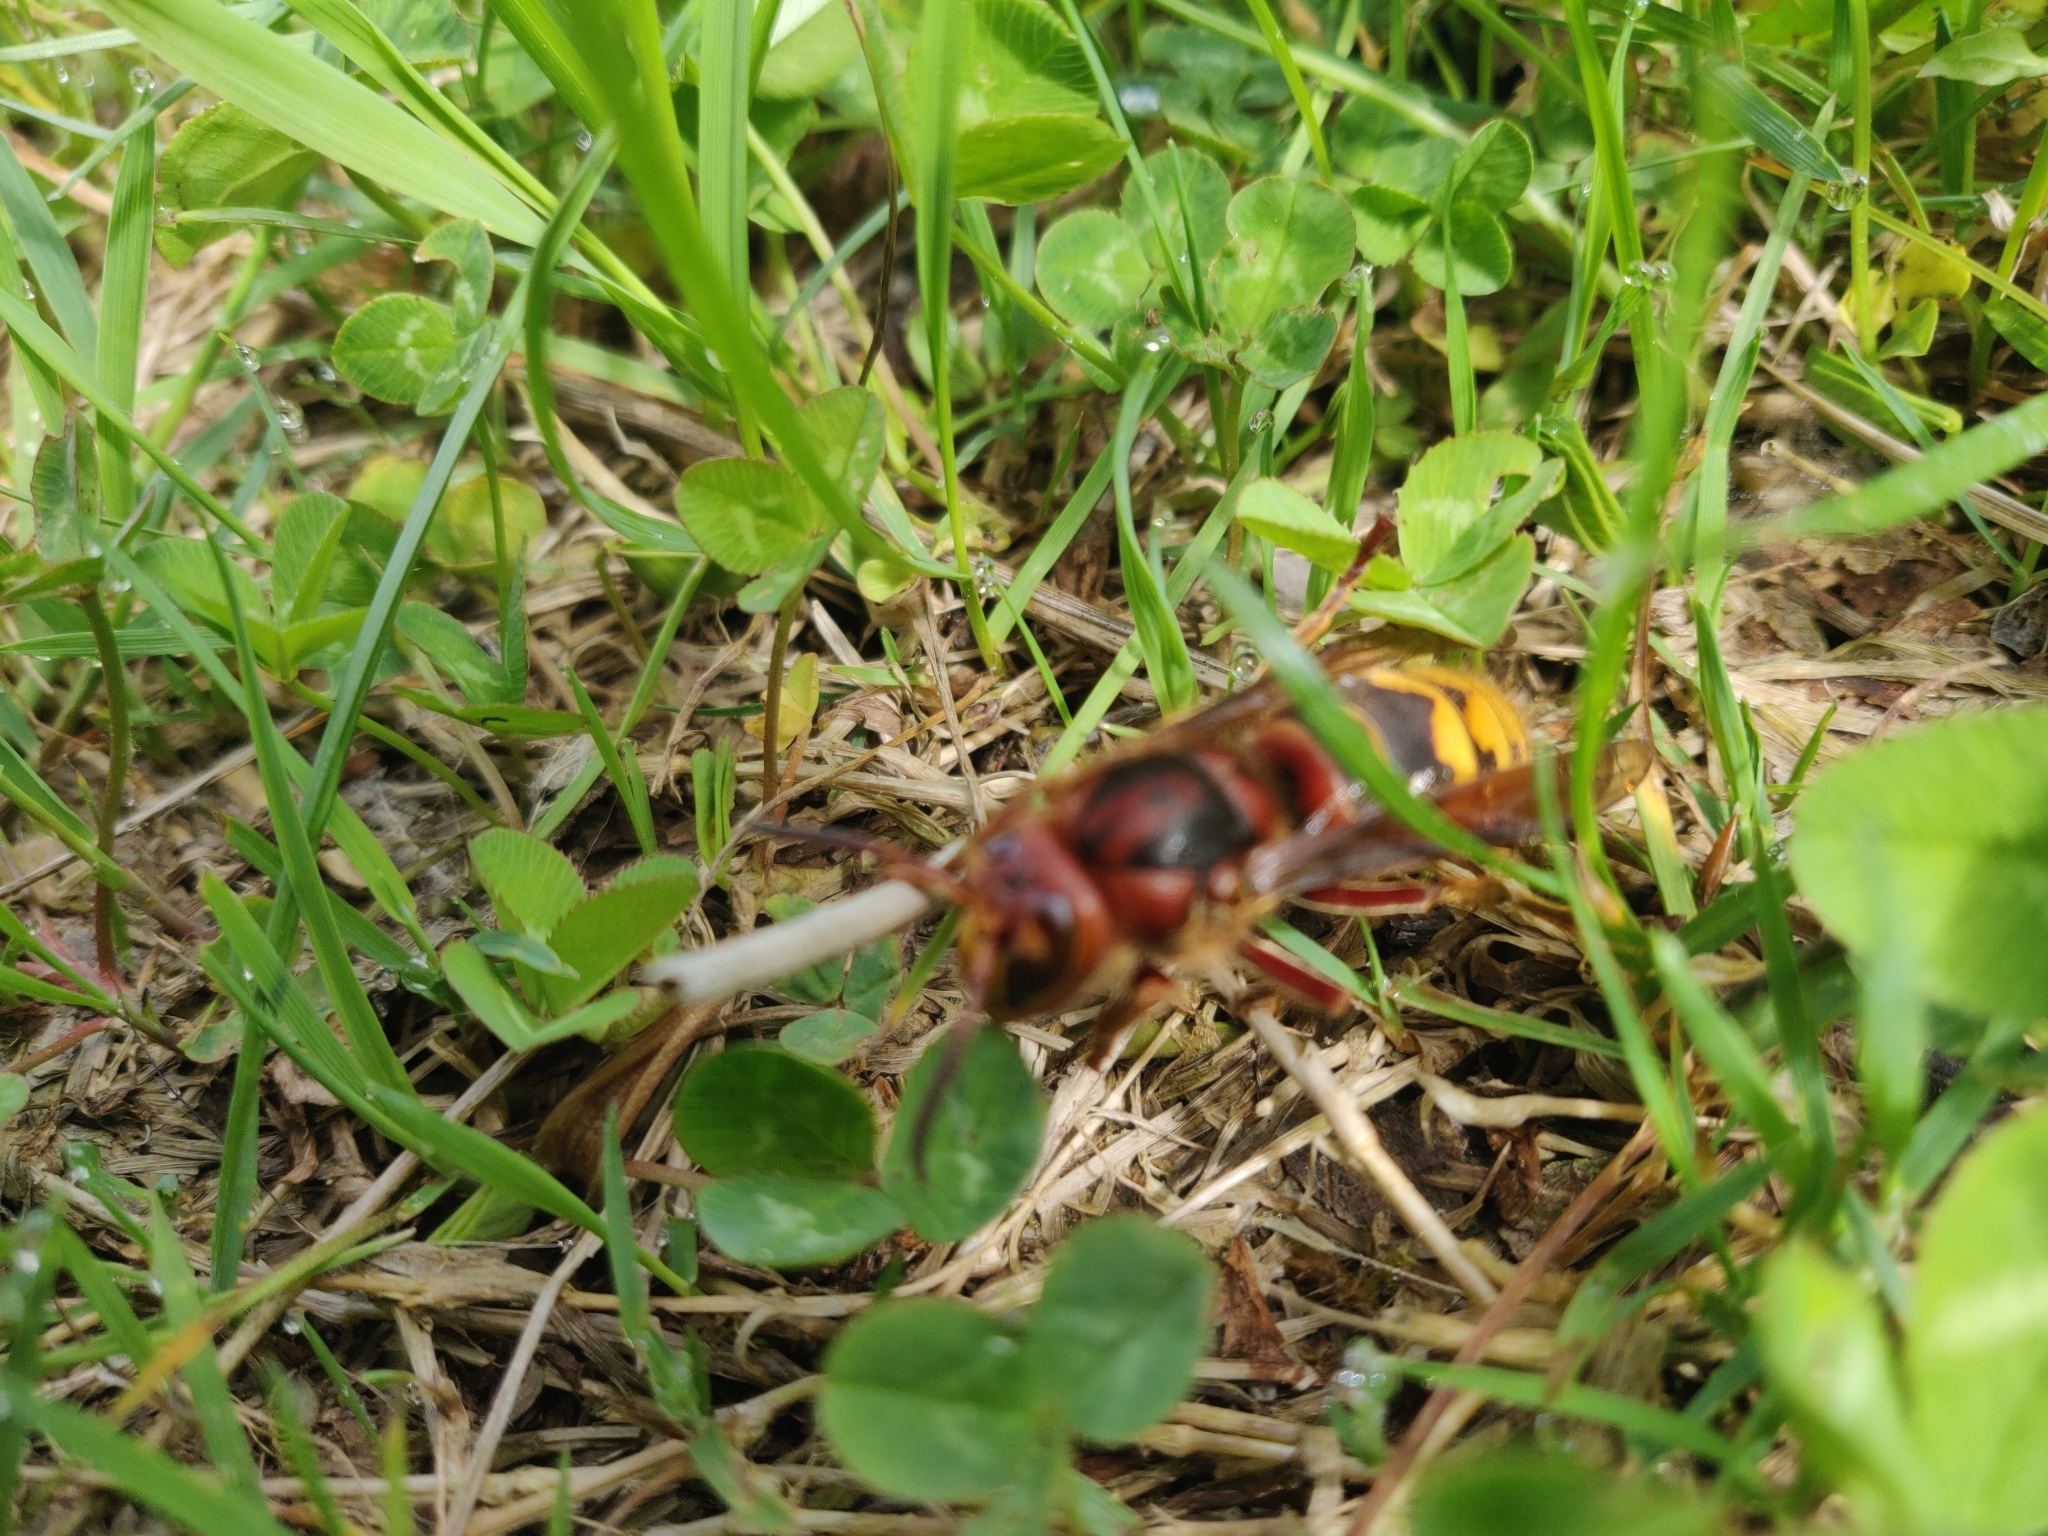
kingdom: Animalia
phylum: Arthropoda
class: Insecta
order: Hymenoptera
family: Vespidae
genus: Vespa
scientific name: Vespa crabro
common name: Hornet
